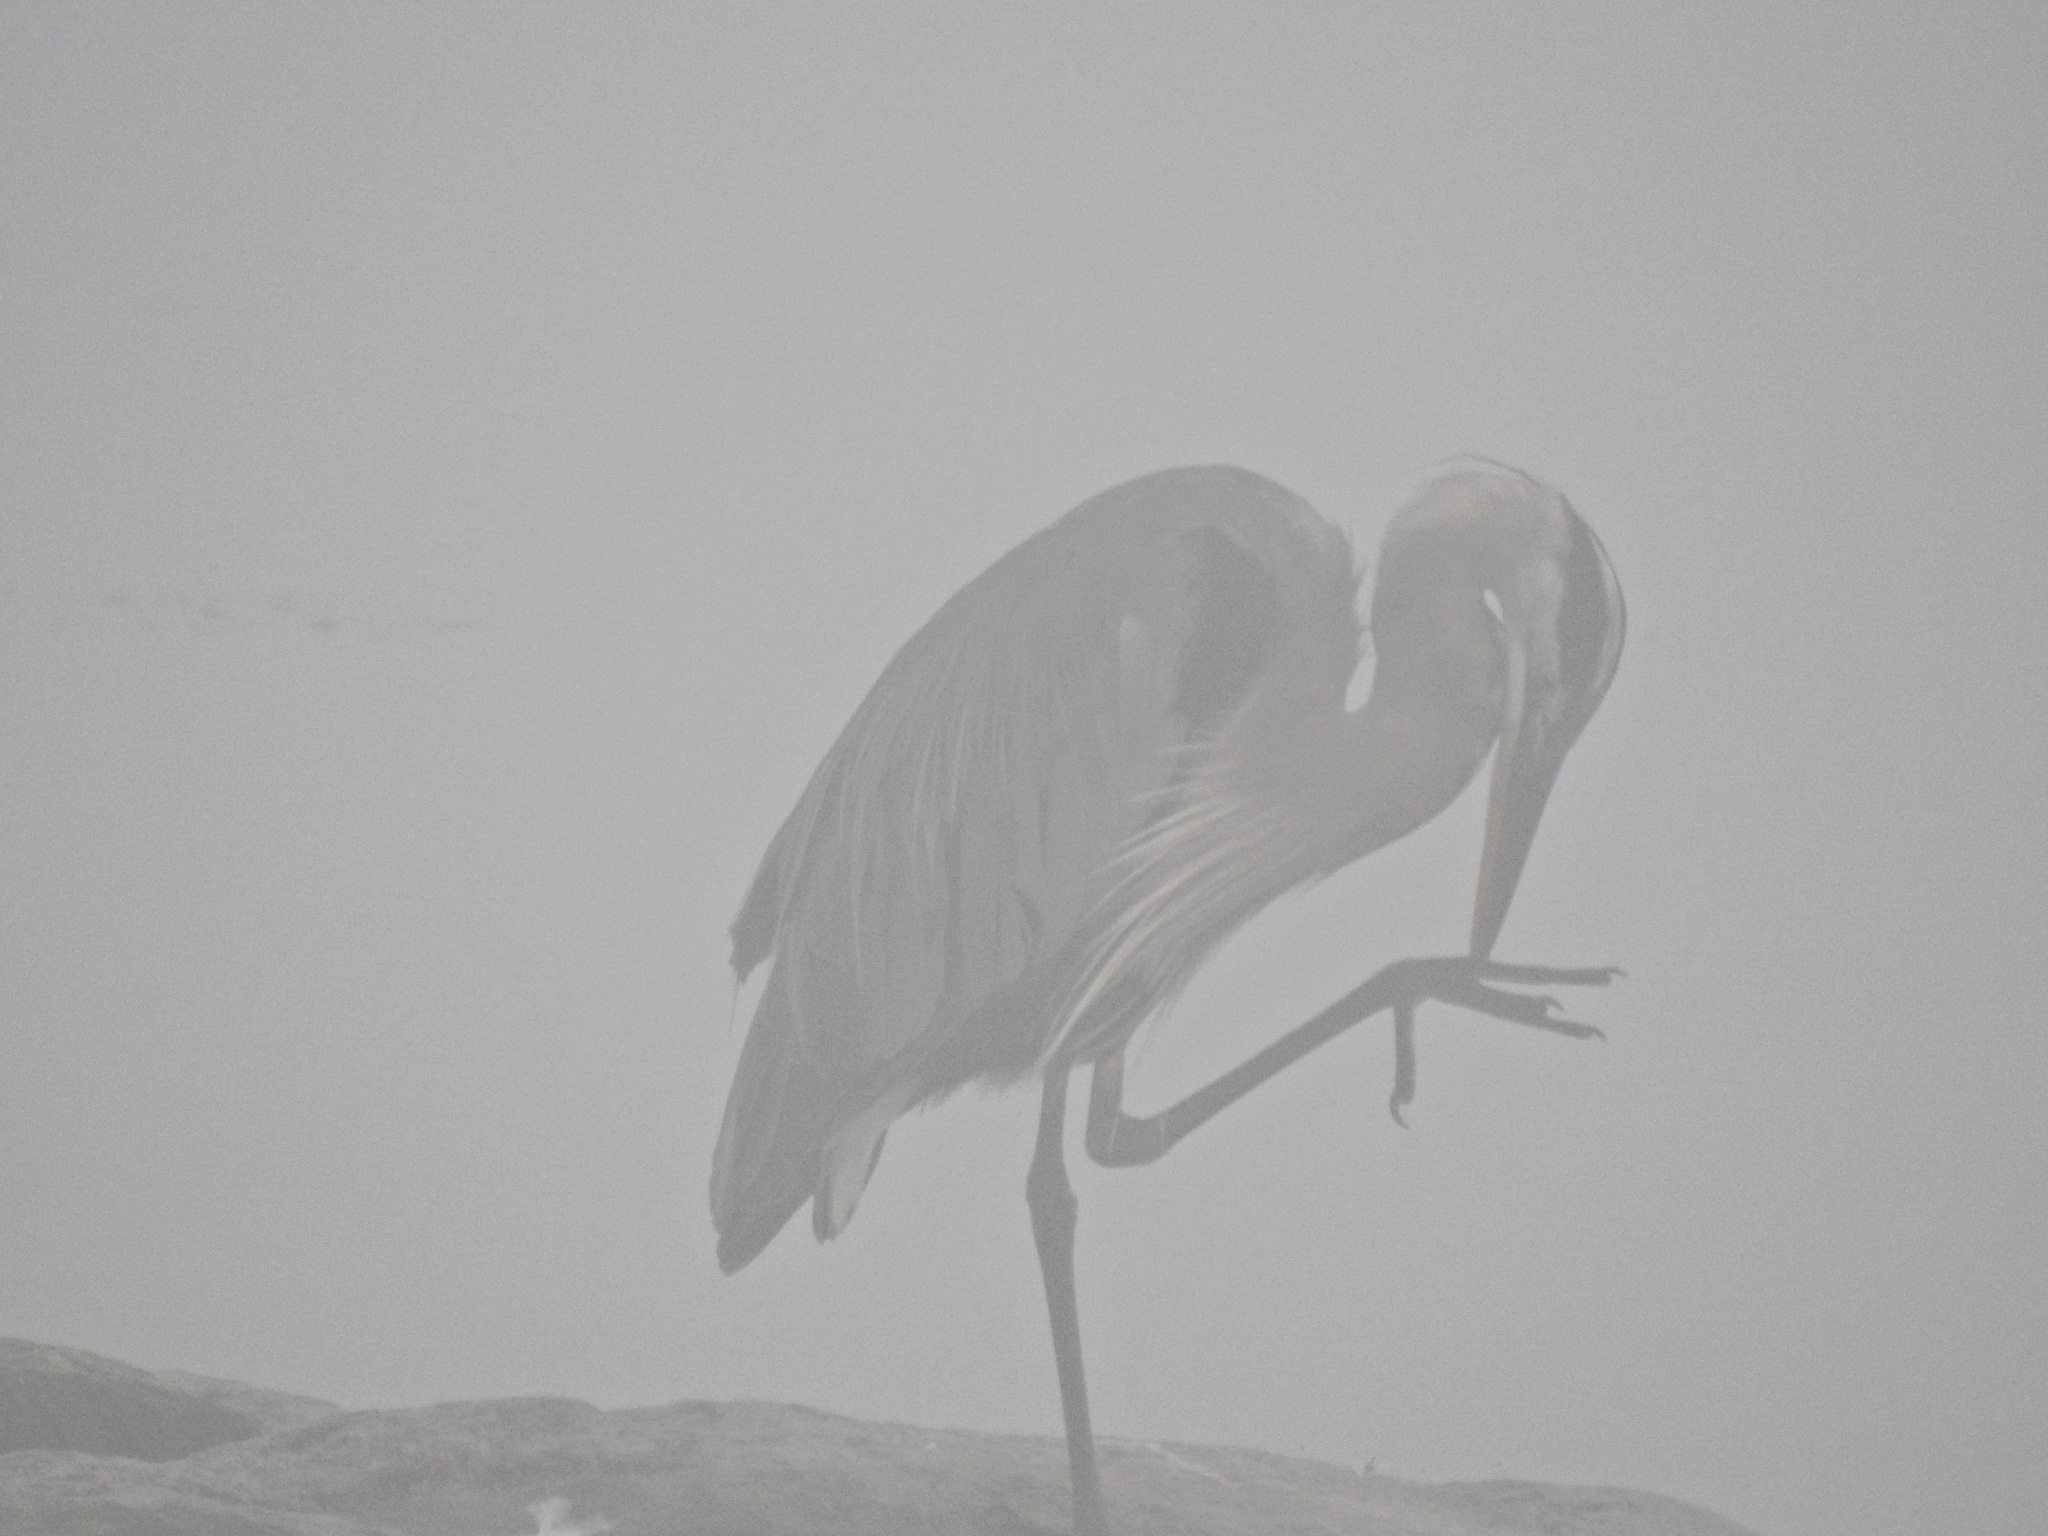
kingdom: Animalia
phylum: Chordata
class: Aves
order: Pelecaniformes
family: Ardeidae
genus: Ardea
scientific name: Ardea herodias
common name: Great blue heron
